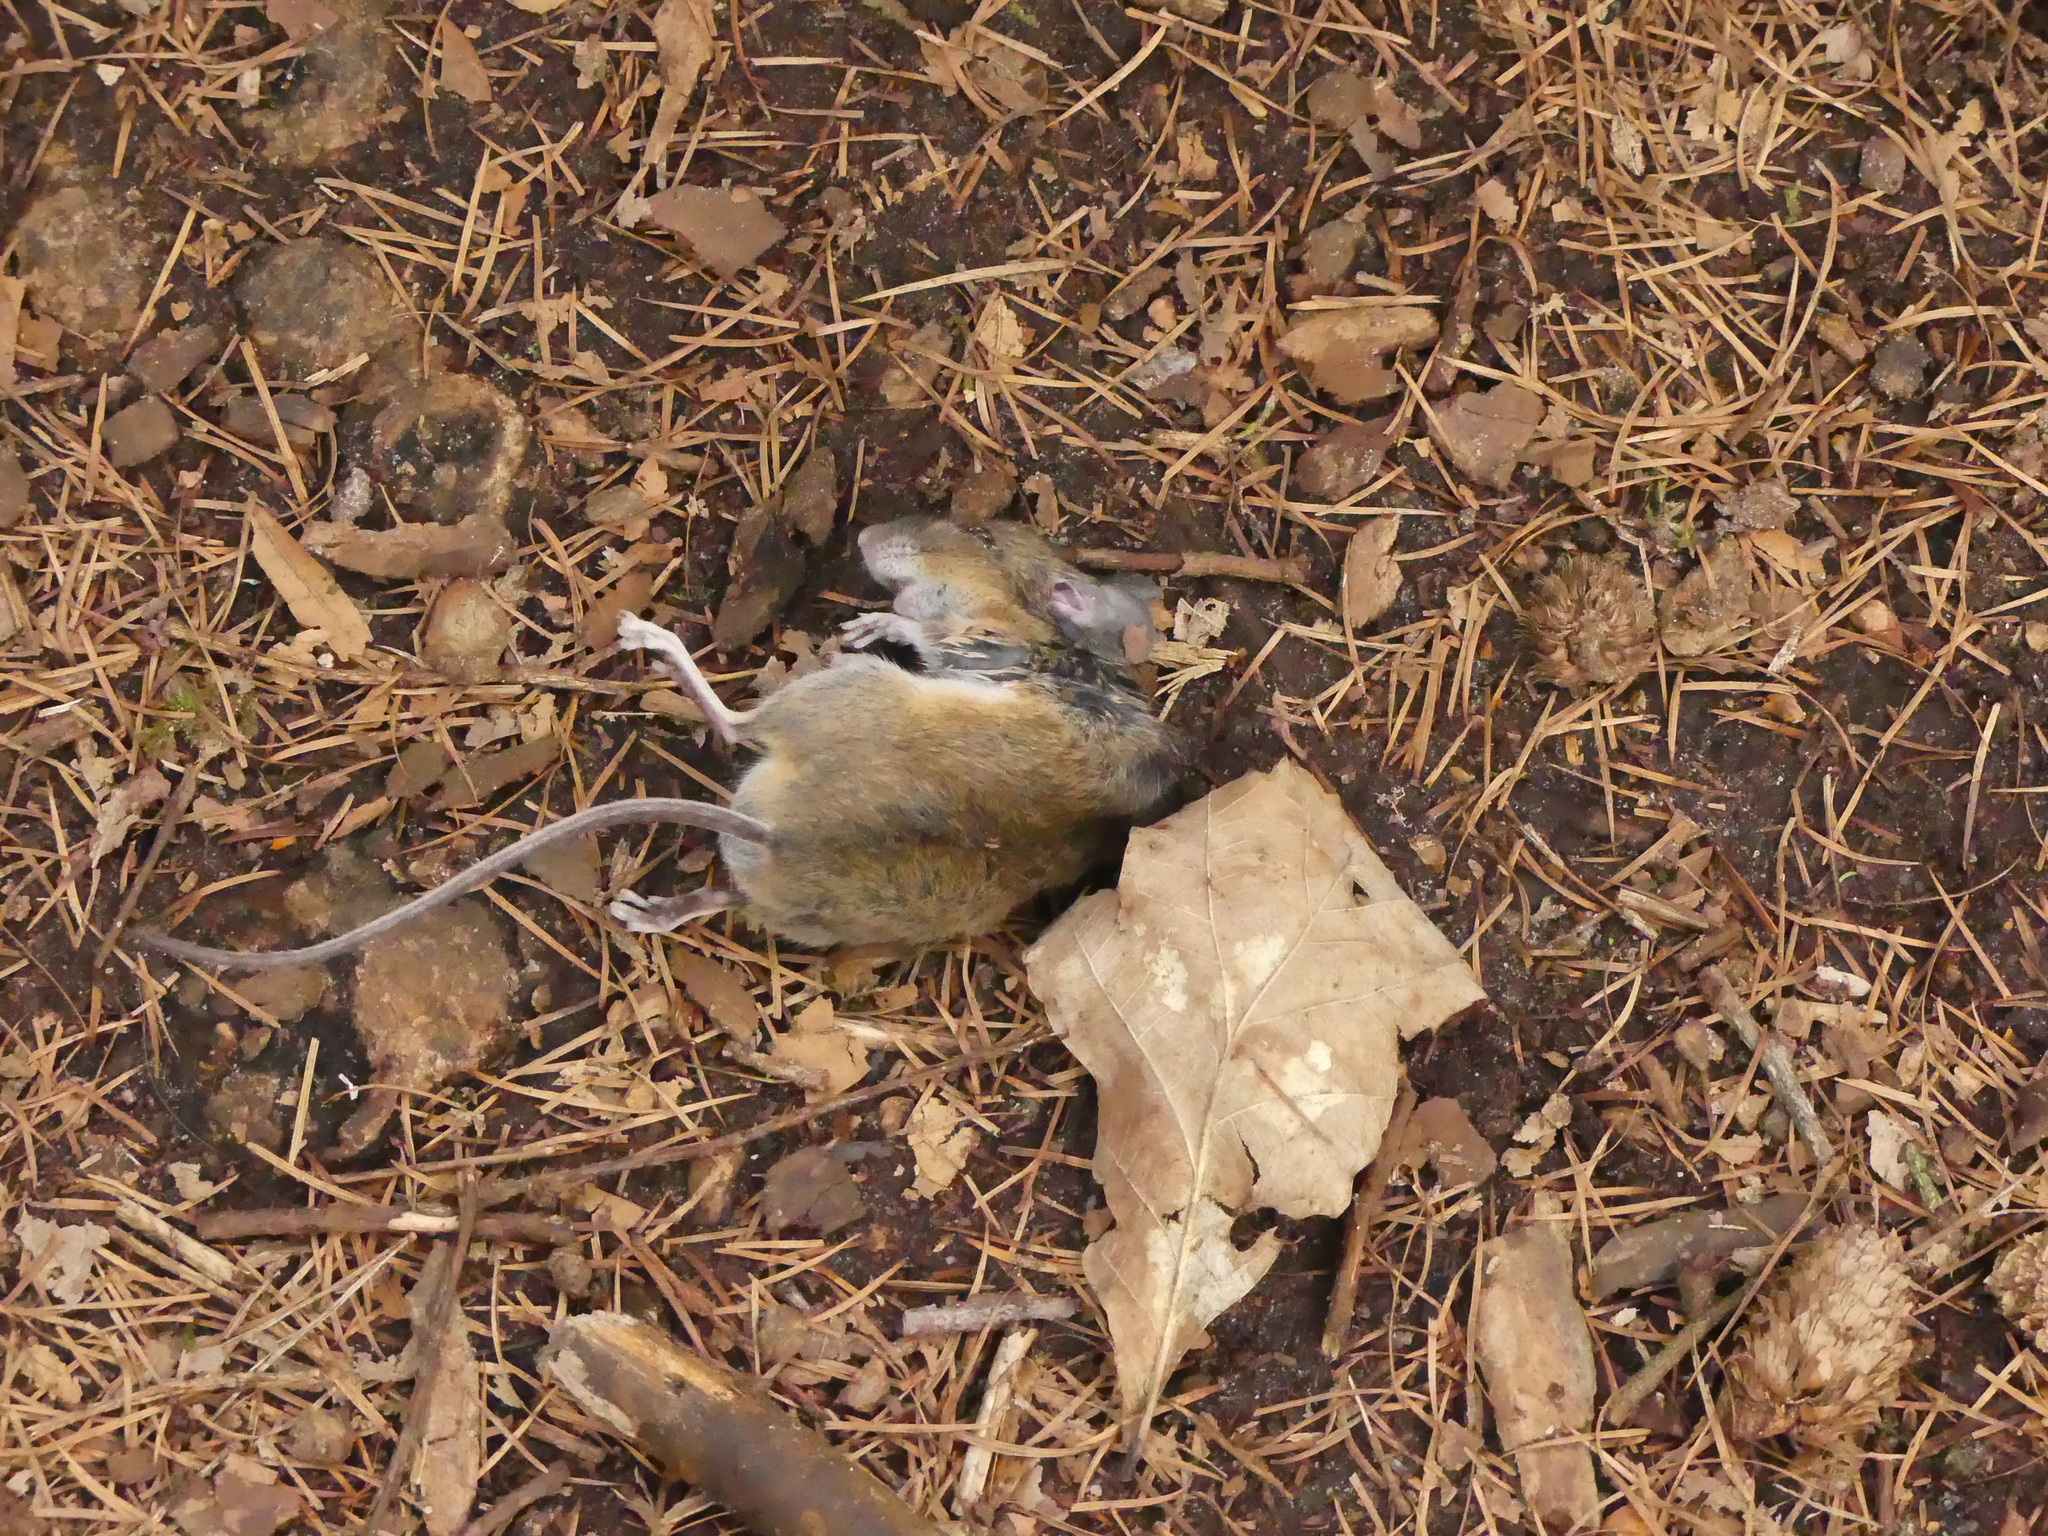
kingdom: Animalia
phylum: Chordata
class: Mammalia
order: Rodentia
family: Muridae
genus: Apodemus
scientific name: Apodemus sylvaticus
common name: Wood mouse
